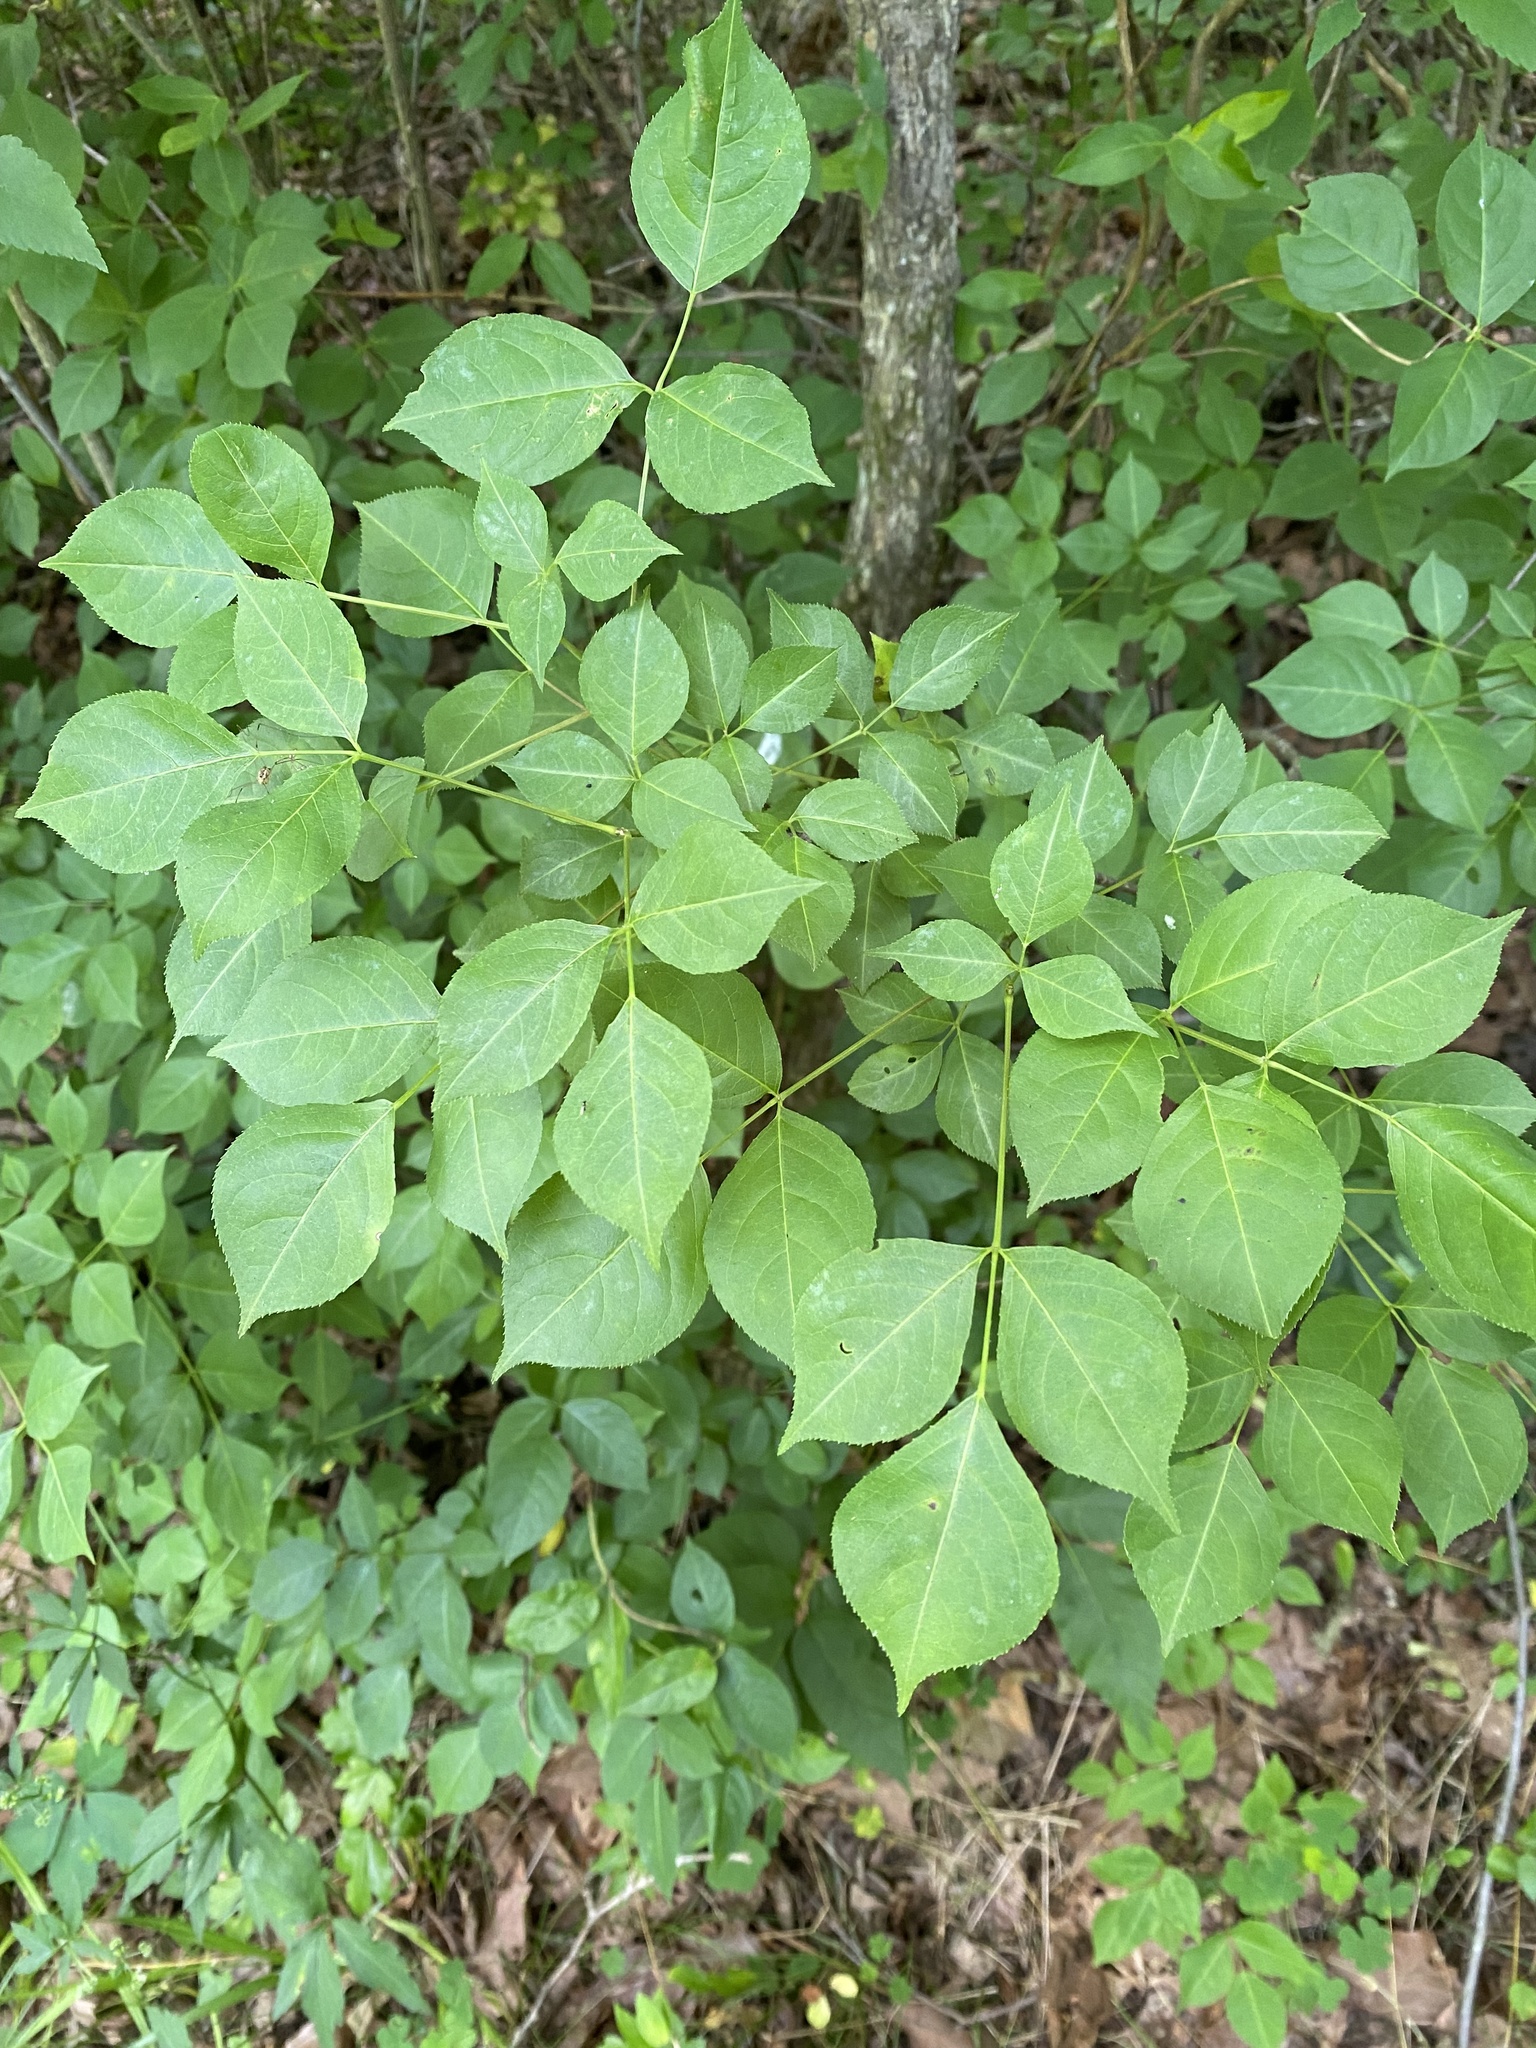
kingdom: Plantae
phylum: Tracheophyta
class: Magnoliopsida
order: Crossosomatales
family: Staphyleaceae
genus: Staphylea
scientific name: Staphylea trifolia
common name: American bladdernut
